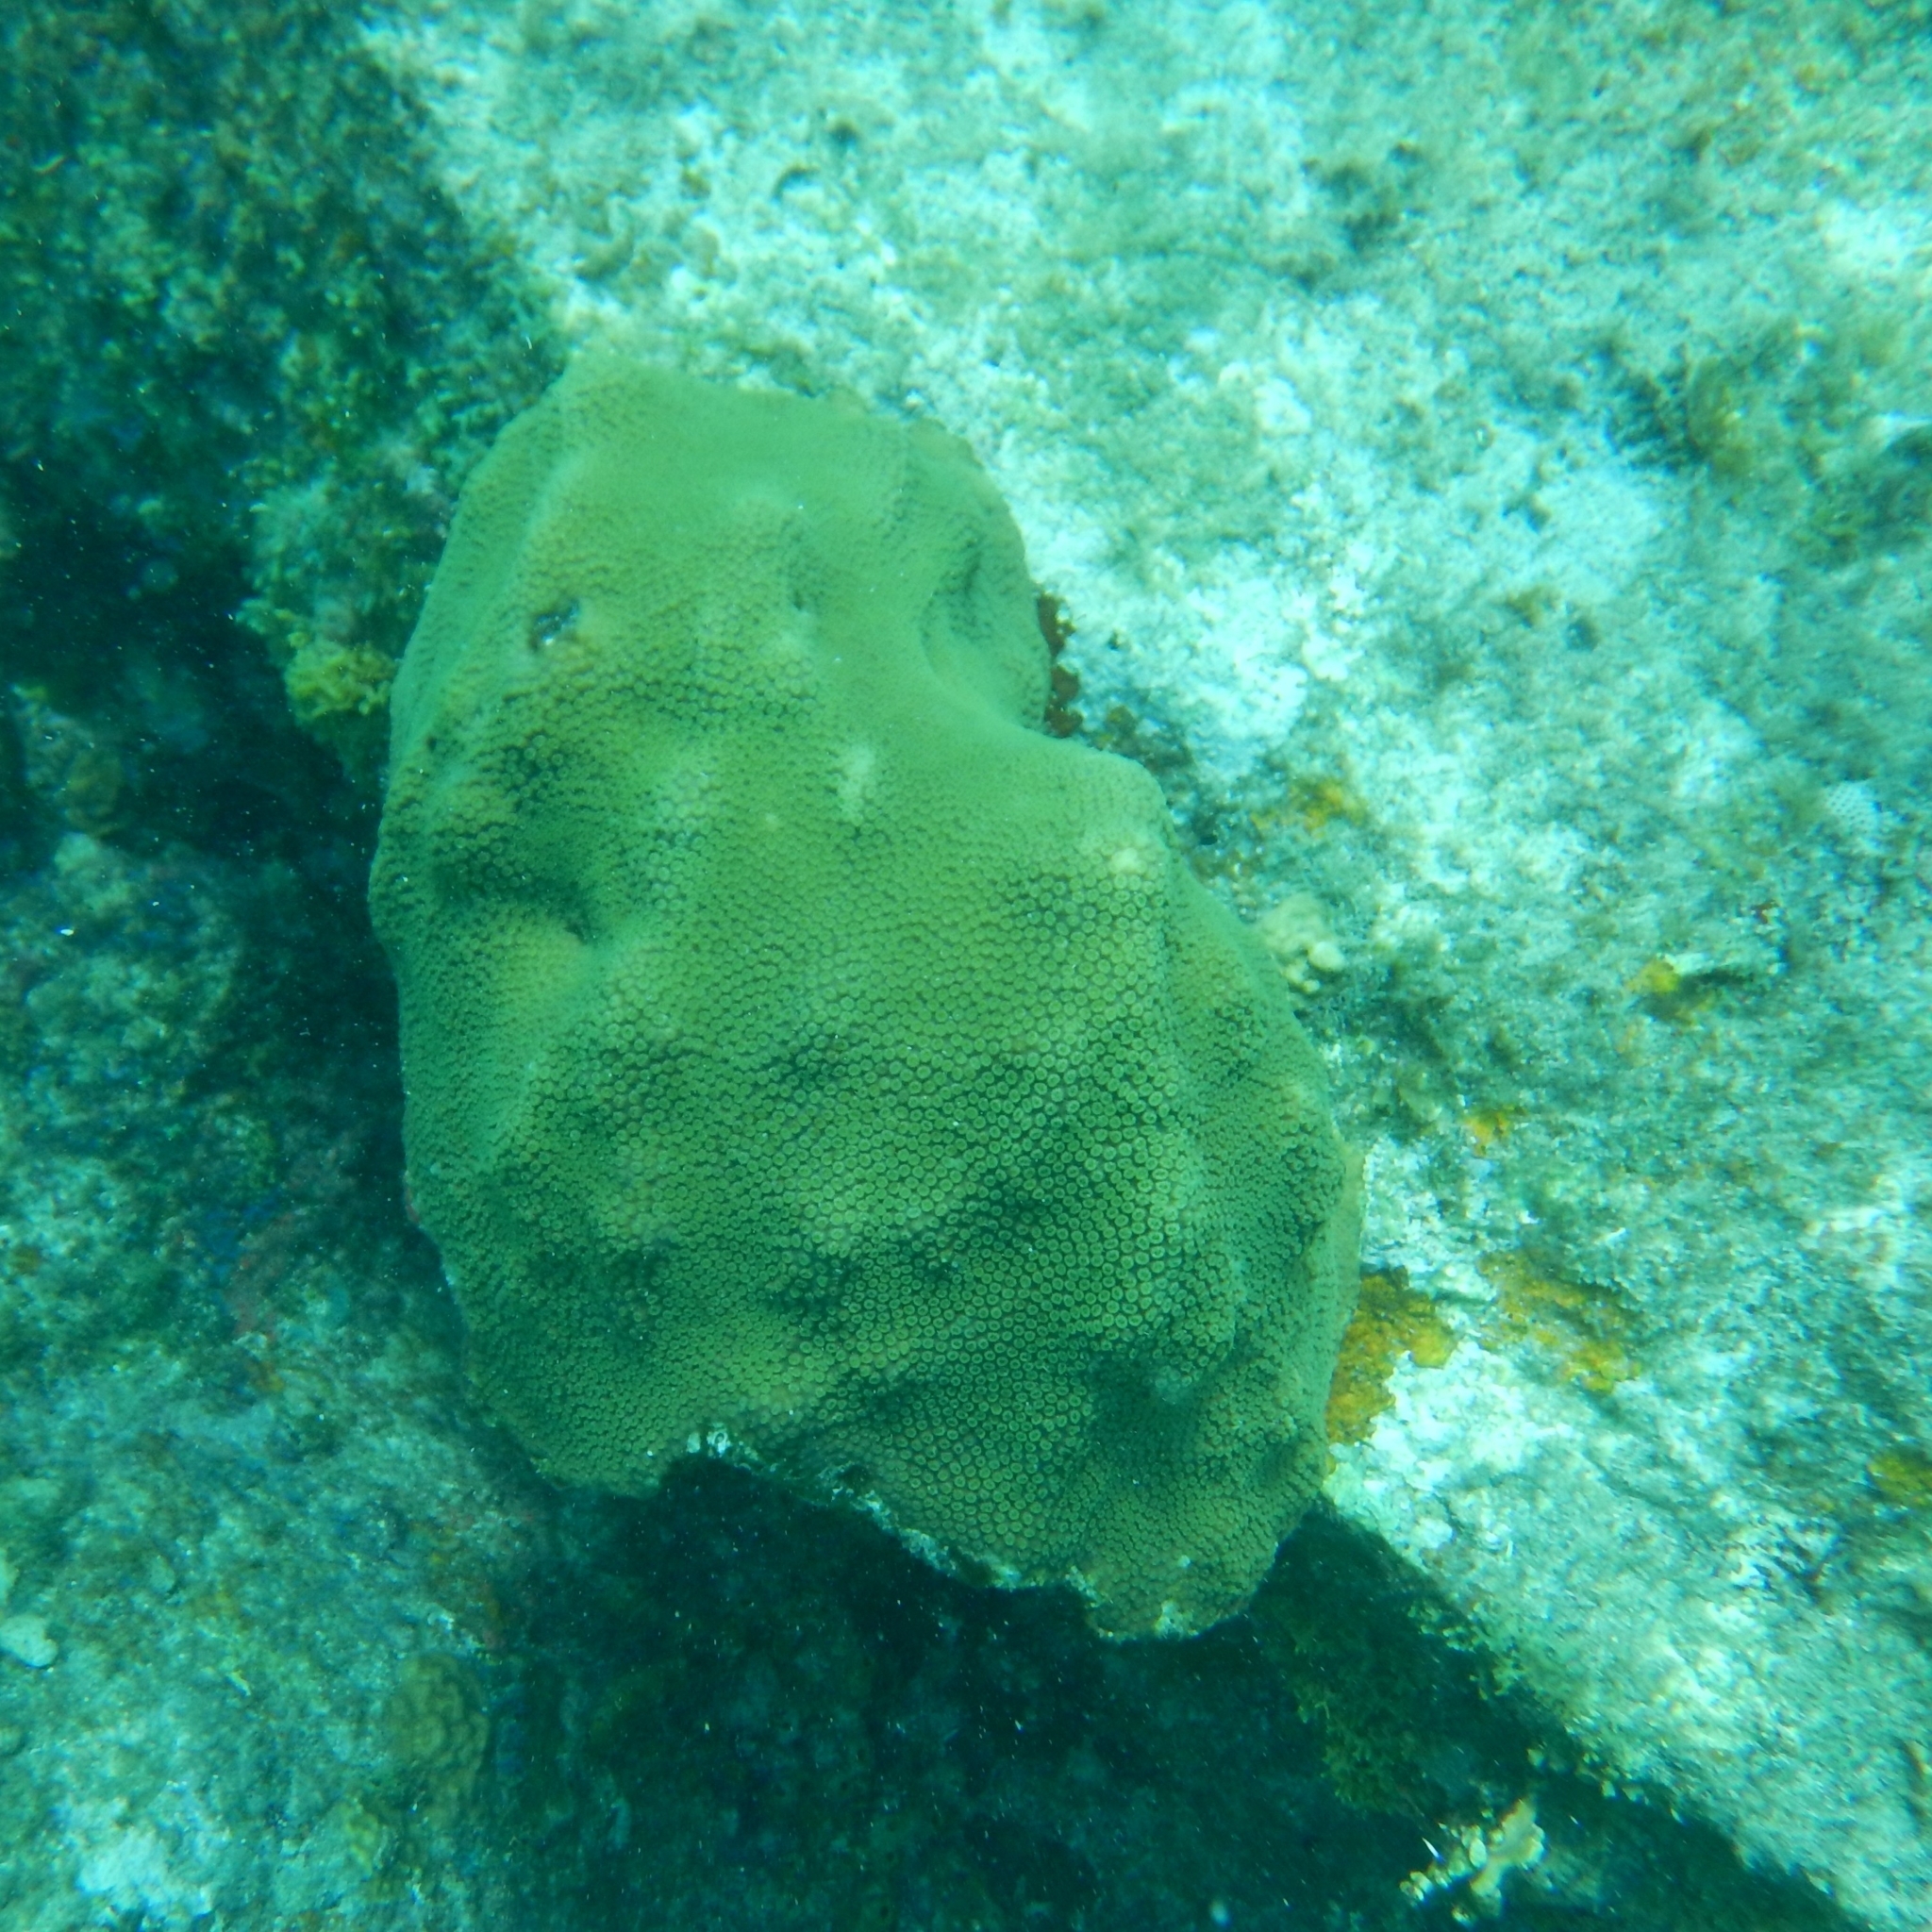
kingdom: Animalia
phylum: Cnidaria
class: Anthozoa
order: Scleractinia
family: Merulinidae
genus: Orbicella
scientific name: Orbicella faveolata
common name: Mountainous star coral
